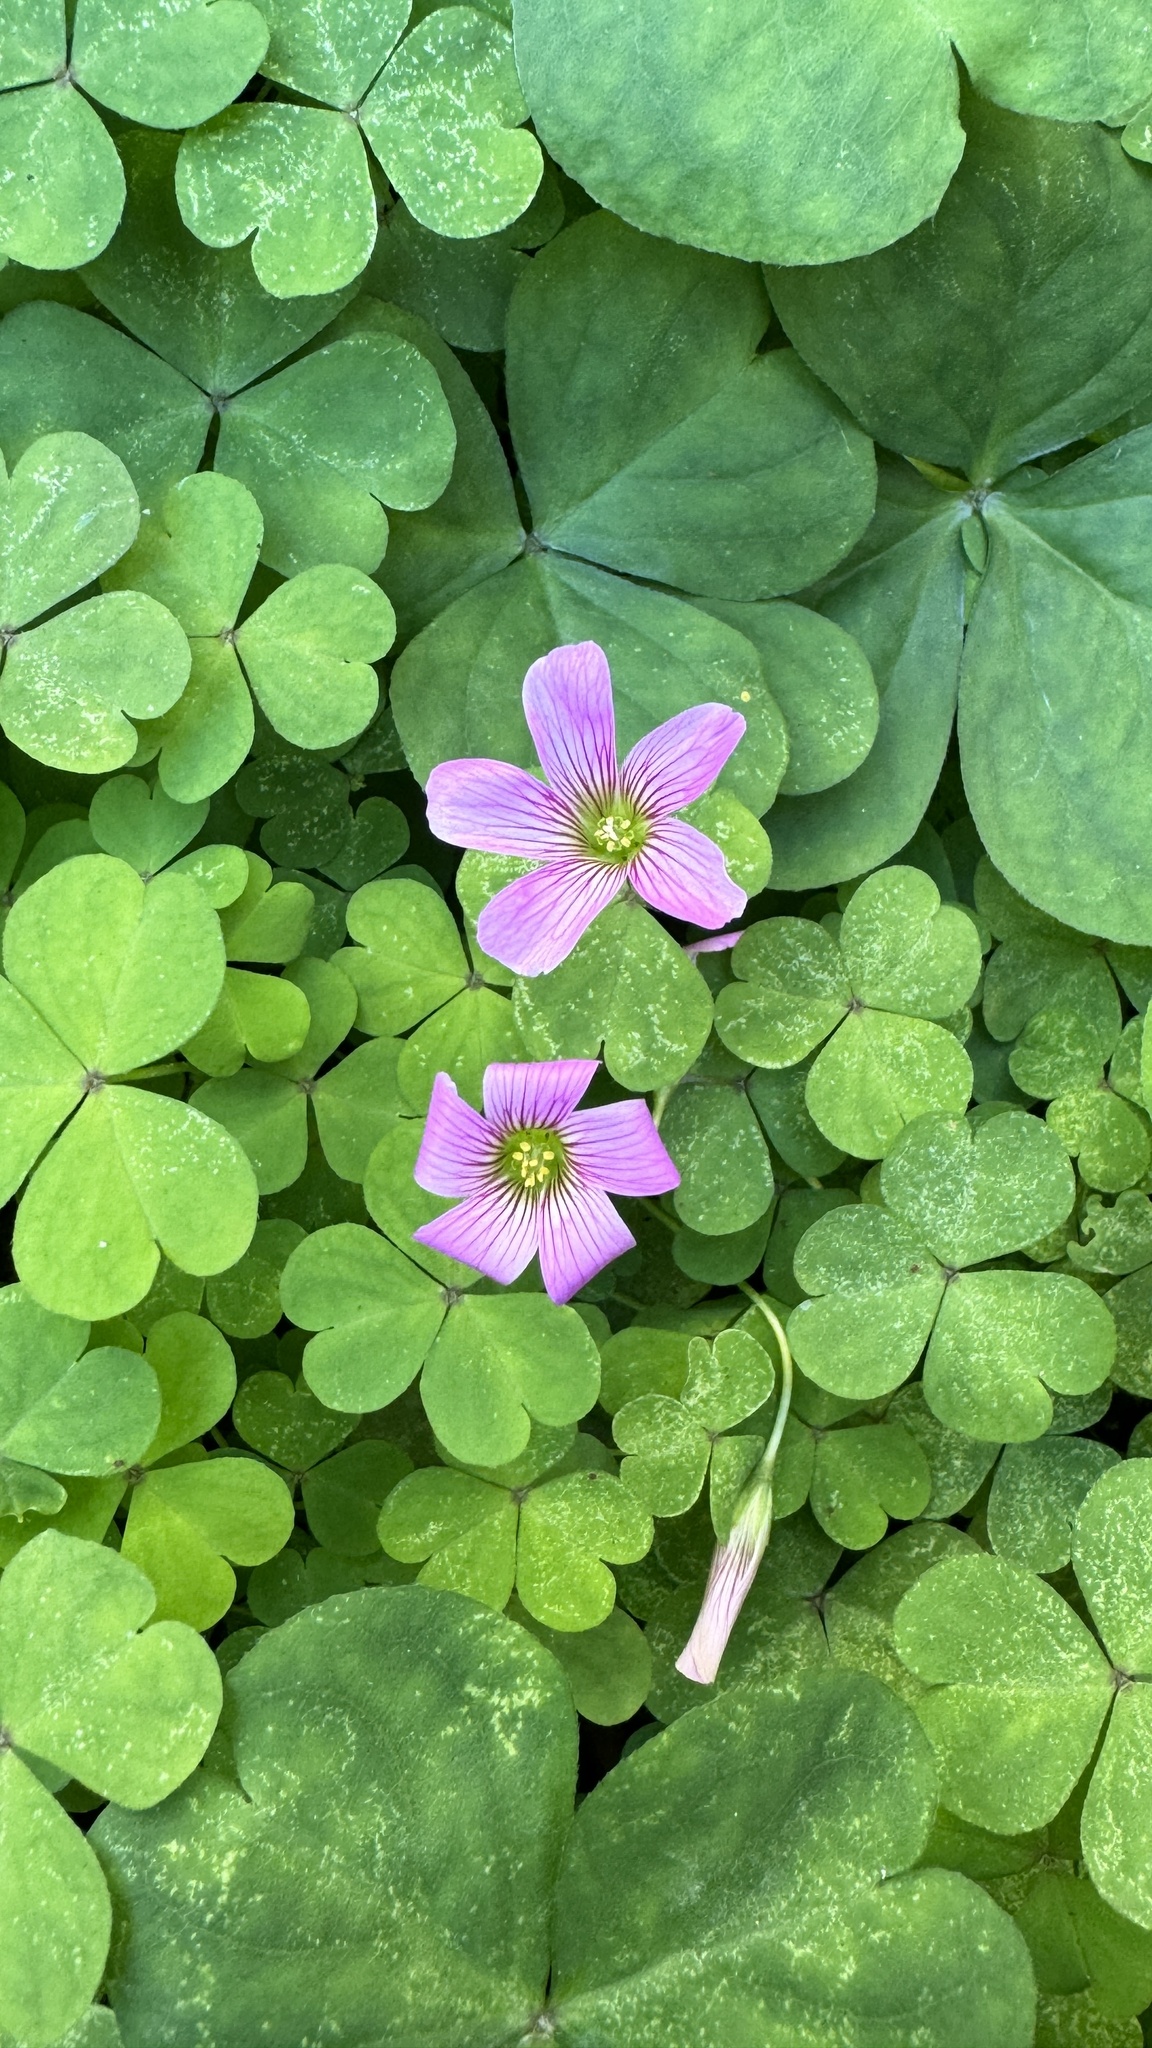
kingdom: Plantae
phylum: Tracheophyta
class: Magnoliopsida
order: Oxalidales
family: Oxalidaceae
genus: Oxalis
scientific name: Oxalis debilis
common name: Large-flowered pink-sorrel
